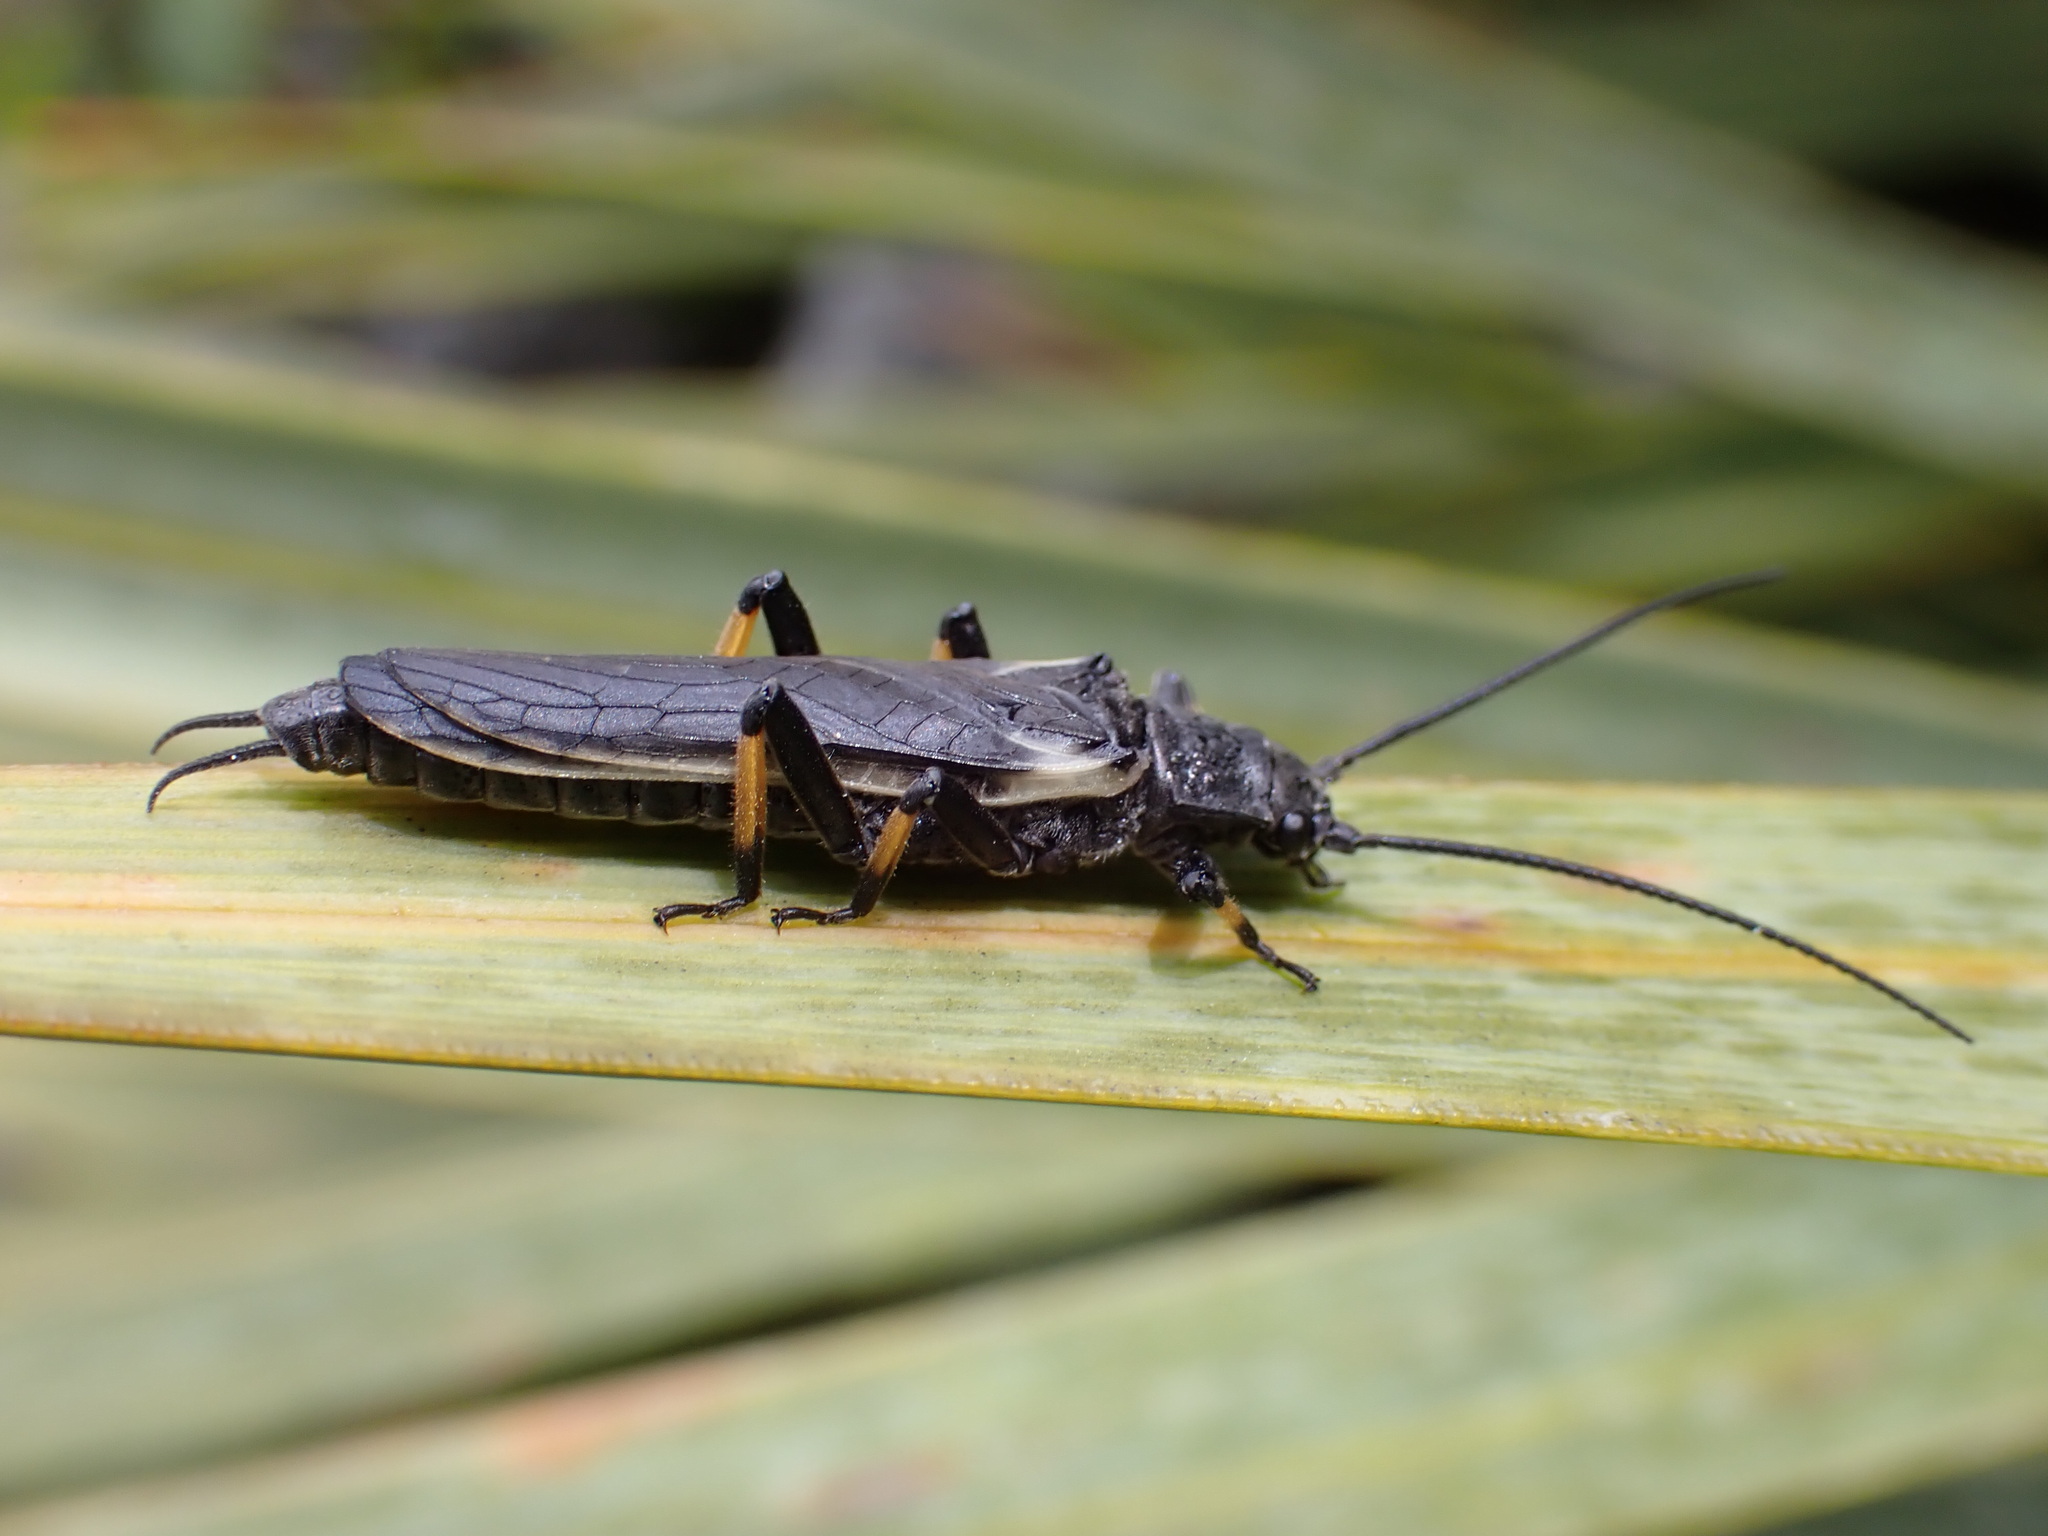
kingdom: Animalia
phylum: Arthropoda
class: Insecta
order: Plecoptera
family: Austroperlidae
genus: Austroperla
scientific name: Austroperla cyrene
